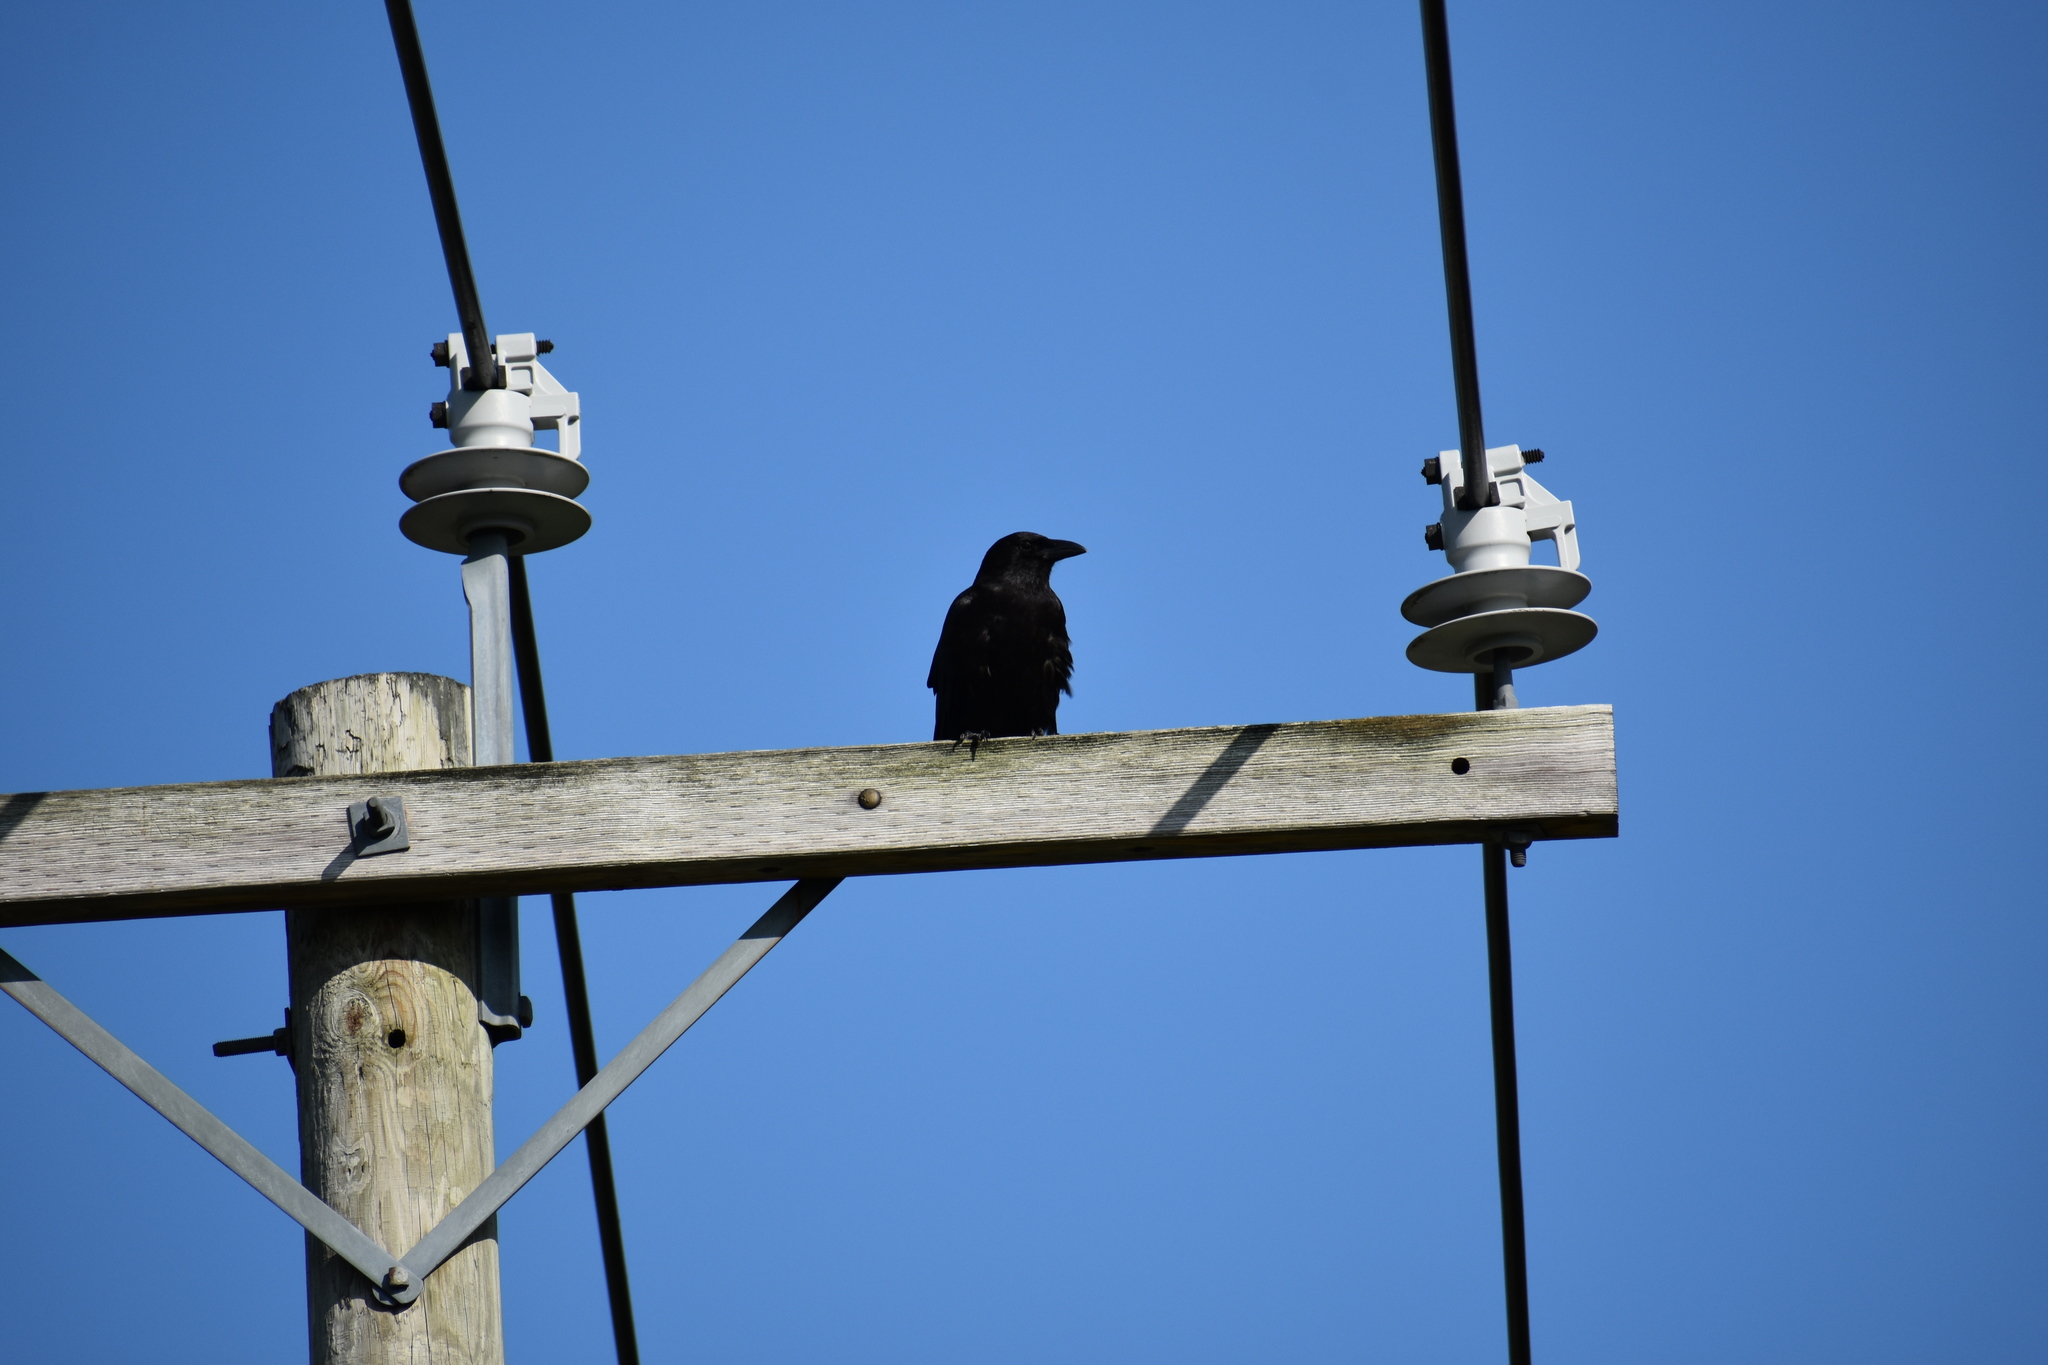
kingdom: Animalia
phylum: Chordata
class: Aves
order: Passeriformes
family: Corvidae
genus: Corvus
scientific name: Corvus brachyrhynchos
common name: American crow
